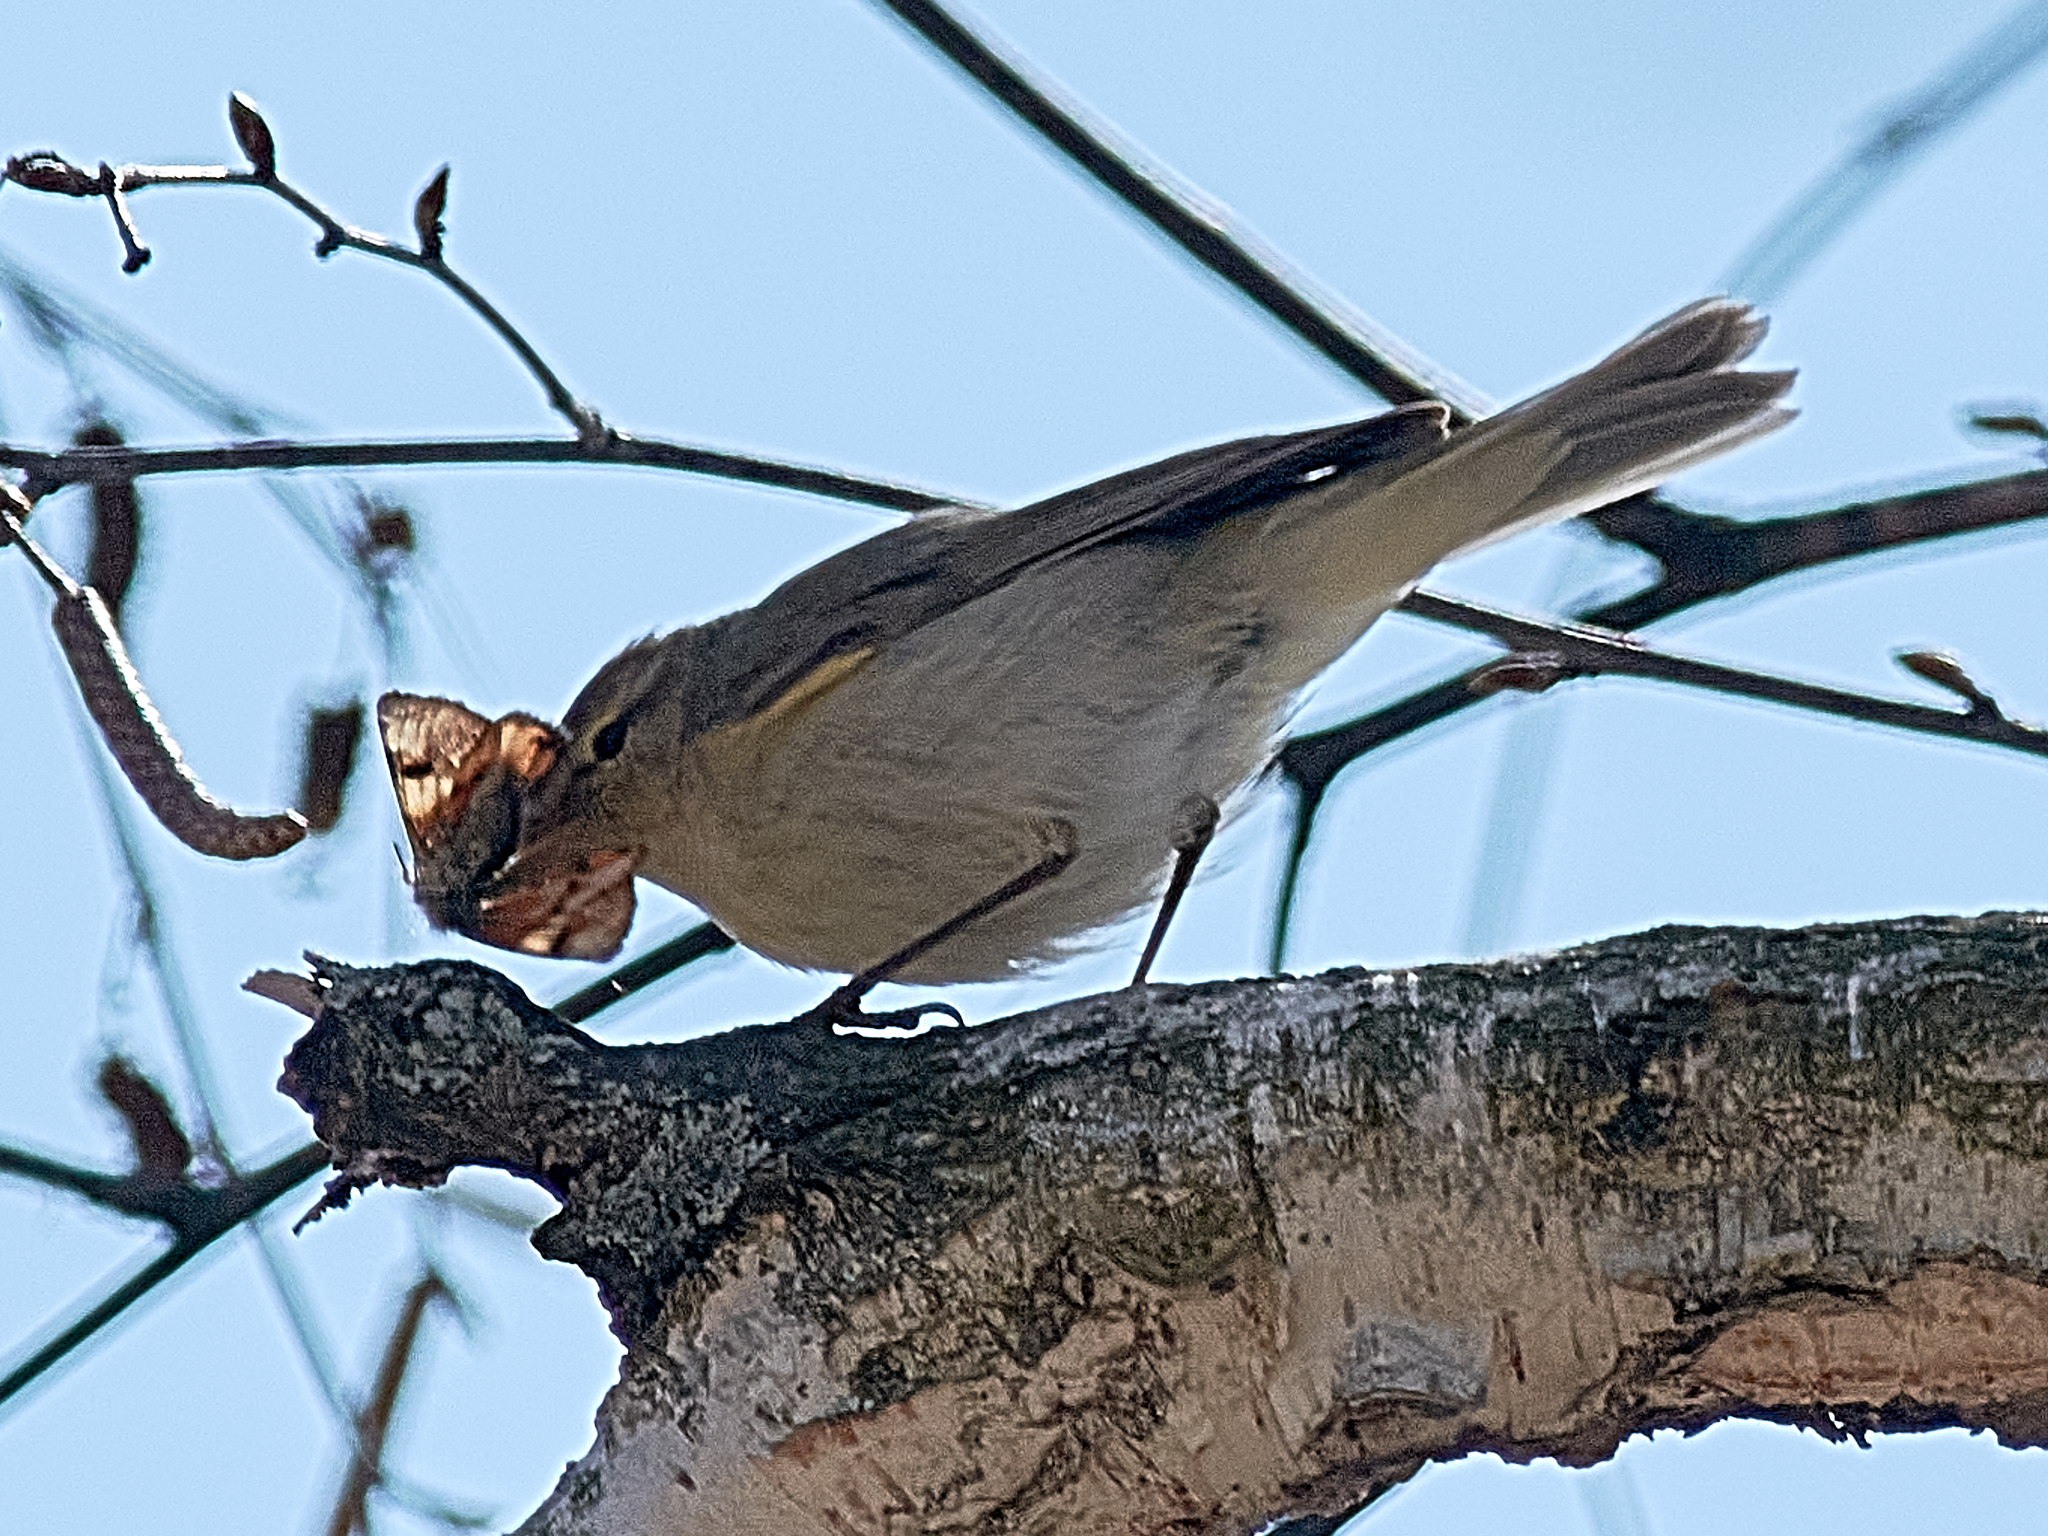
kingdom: Animalia
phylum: Chordata
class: Aves
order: Passeriformes
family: Phylloscopidae
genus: Phylloscopus
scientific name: Phylloscopus collybita
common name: Common chiffchaff
